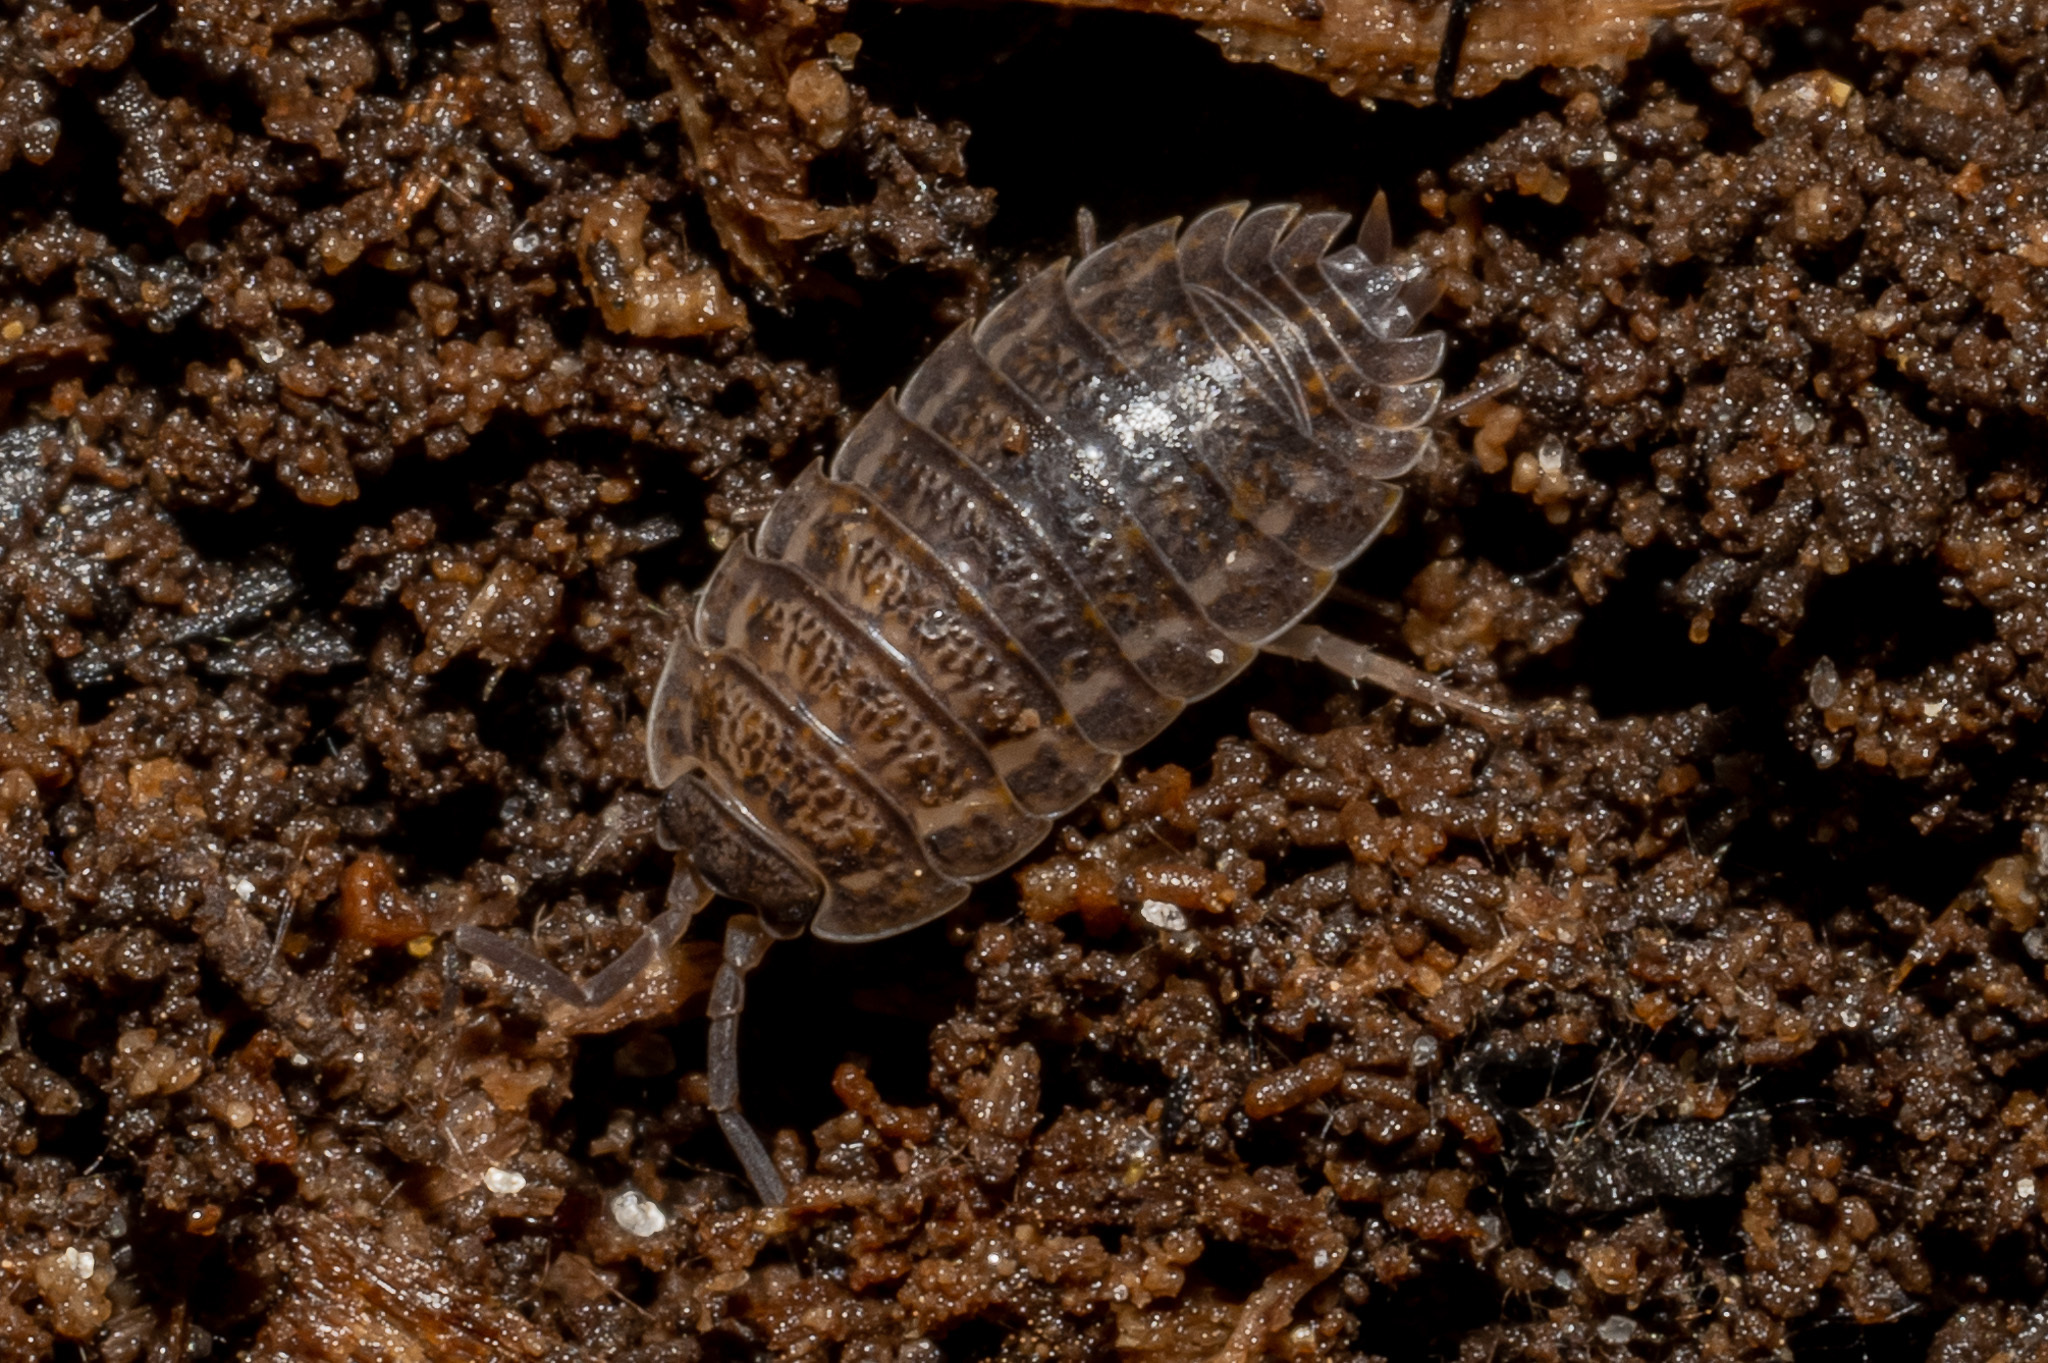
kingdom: Animalia
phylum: Arthropoda
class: Malacostraca
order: Isopoda
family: Trachelipodidae
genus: Trachelipus
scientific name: Trachelipus rathkii
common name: Isopod
